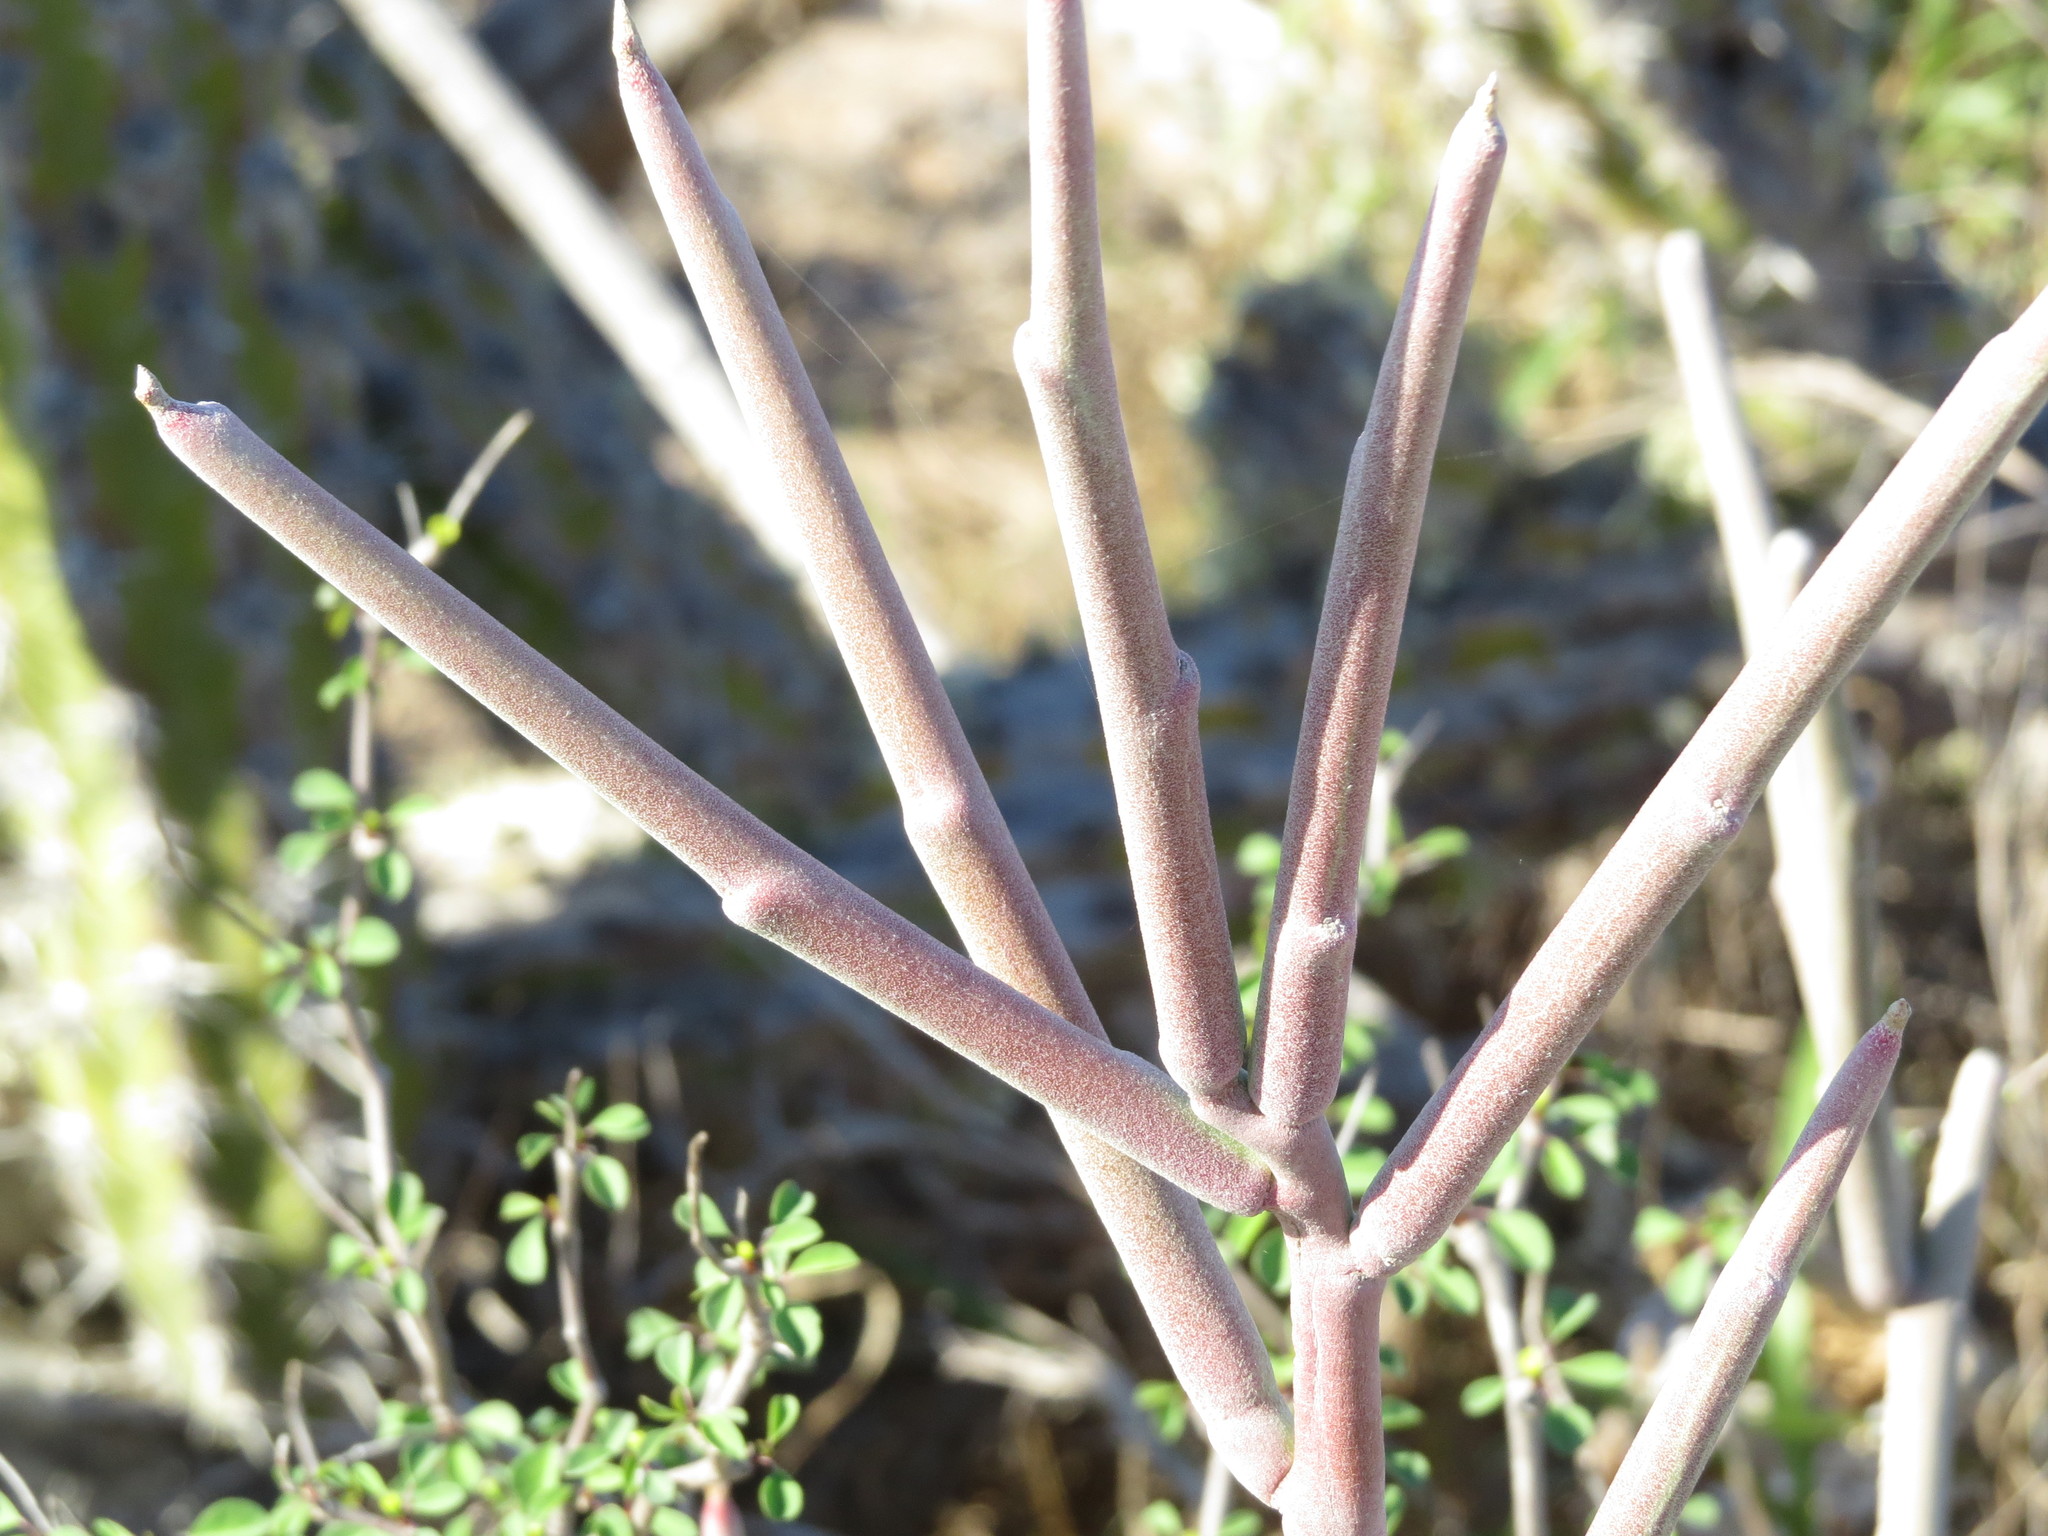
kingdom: Plantae
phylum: Tracheophyta
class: Magnoliopsida
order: Malpighiales
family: Euphorbiaceae
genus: Euphorbia
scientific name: Euphorbia lomelii
